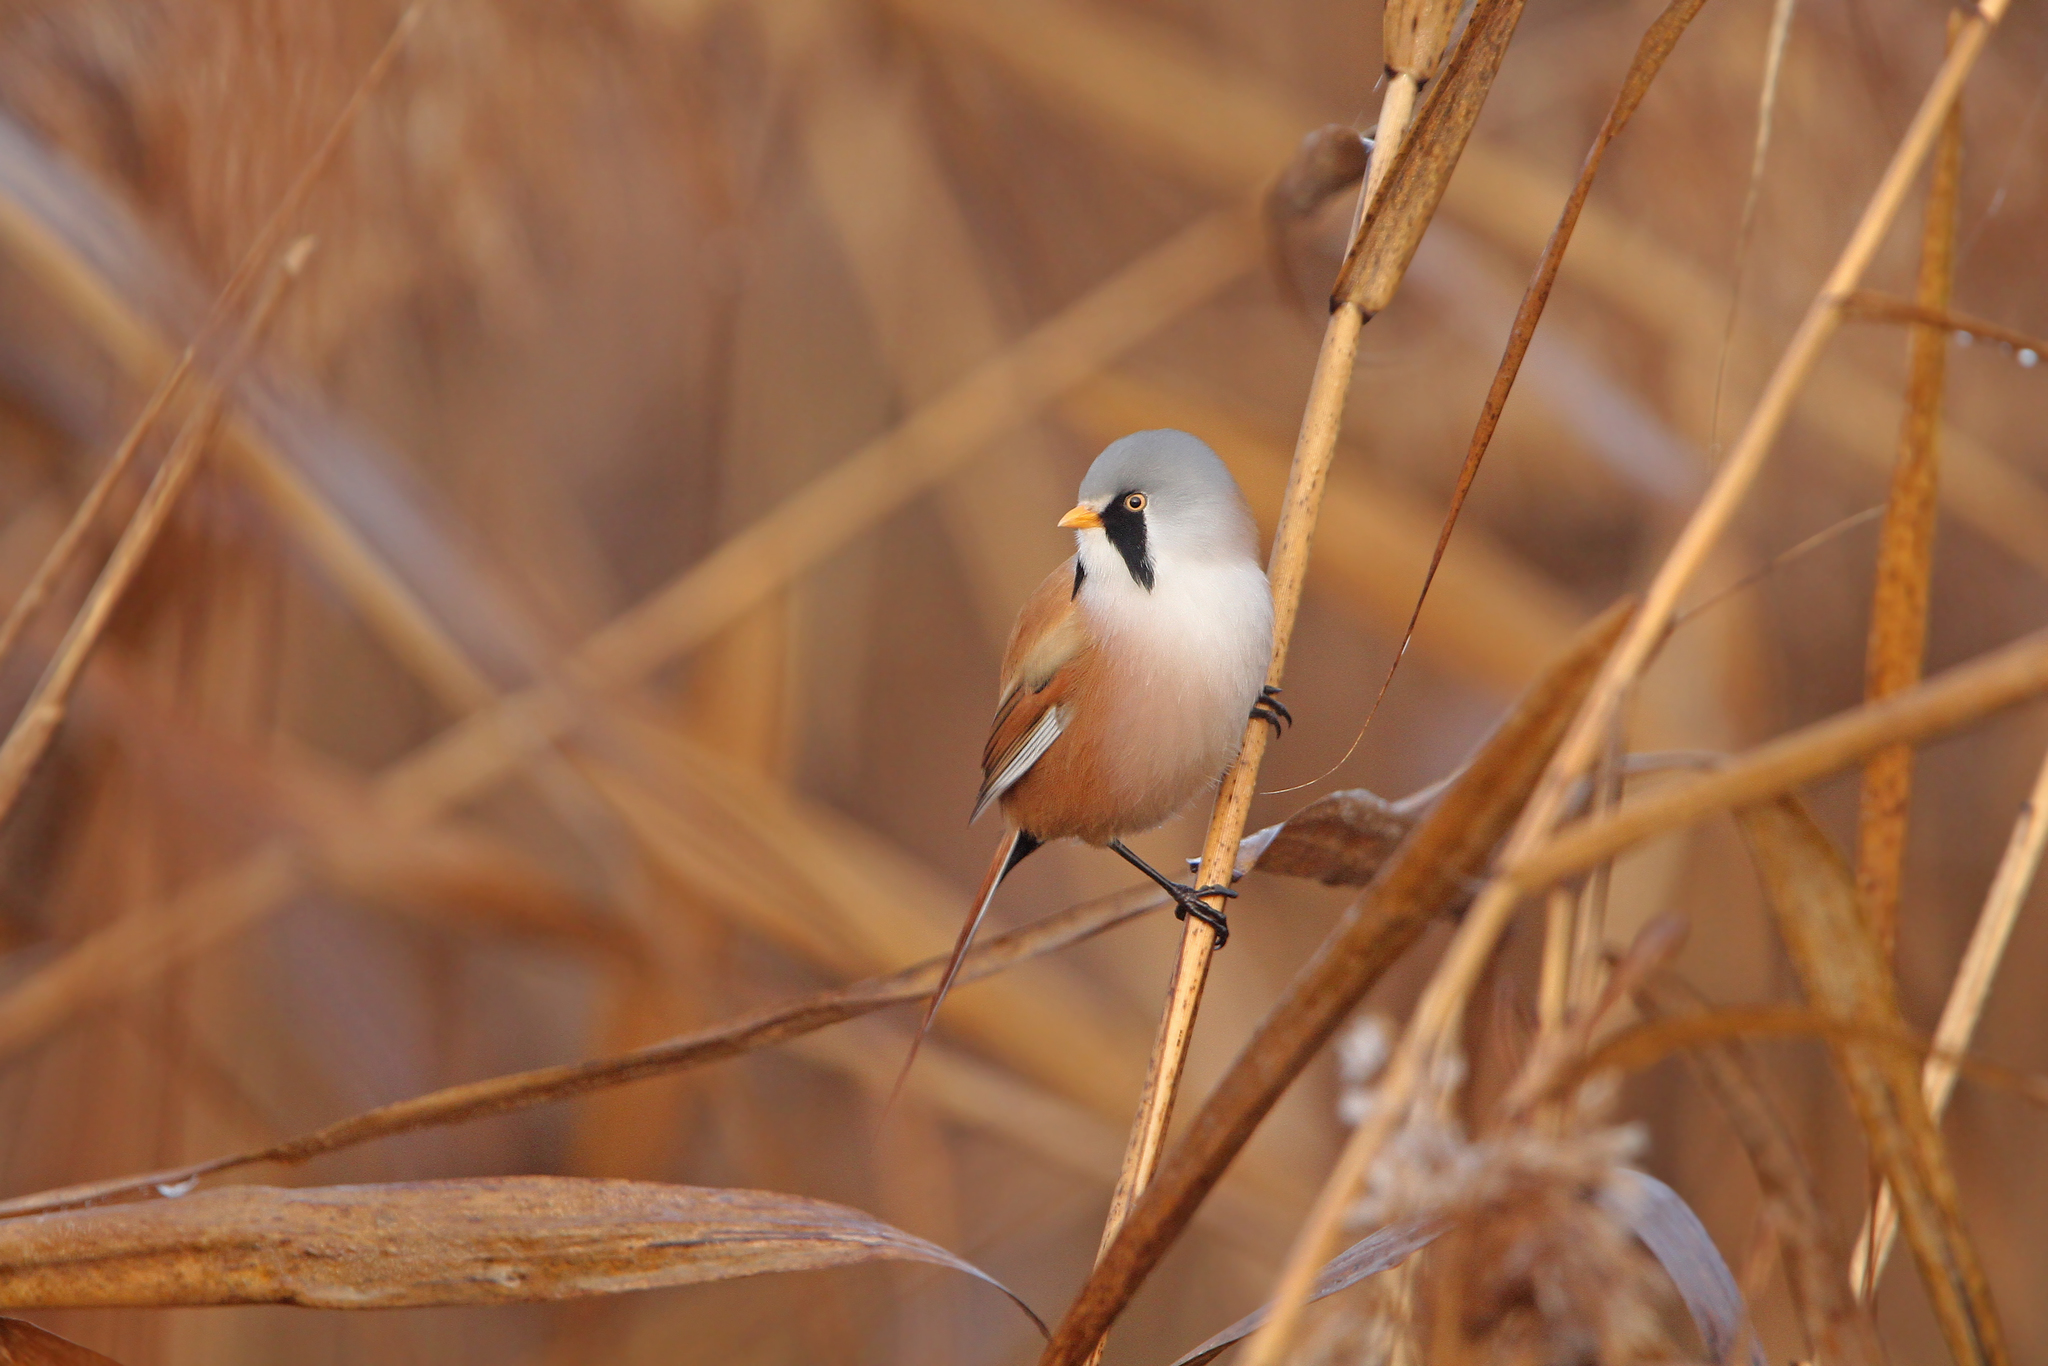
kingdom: Animalia
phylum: Chordata
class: Aves
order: Passeriformes
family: Panuridae
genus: Panurus
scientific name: Panurus biarmicus
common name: Bearded reedling
